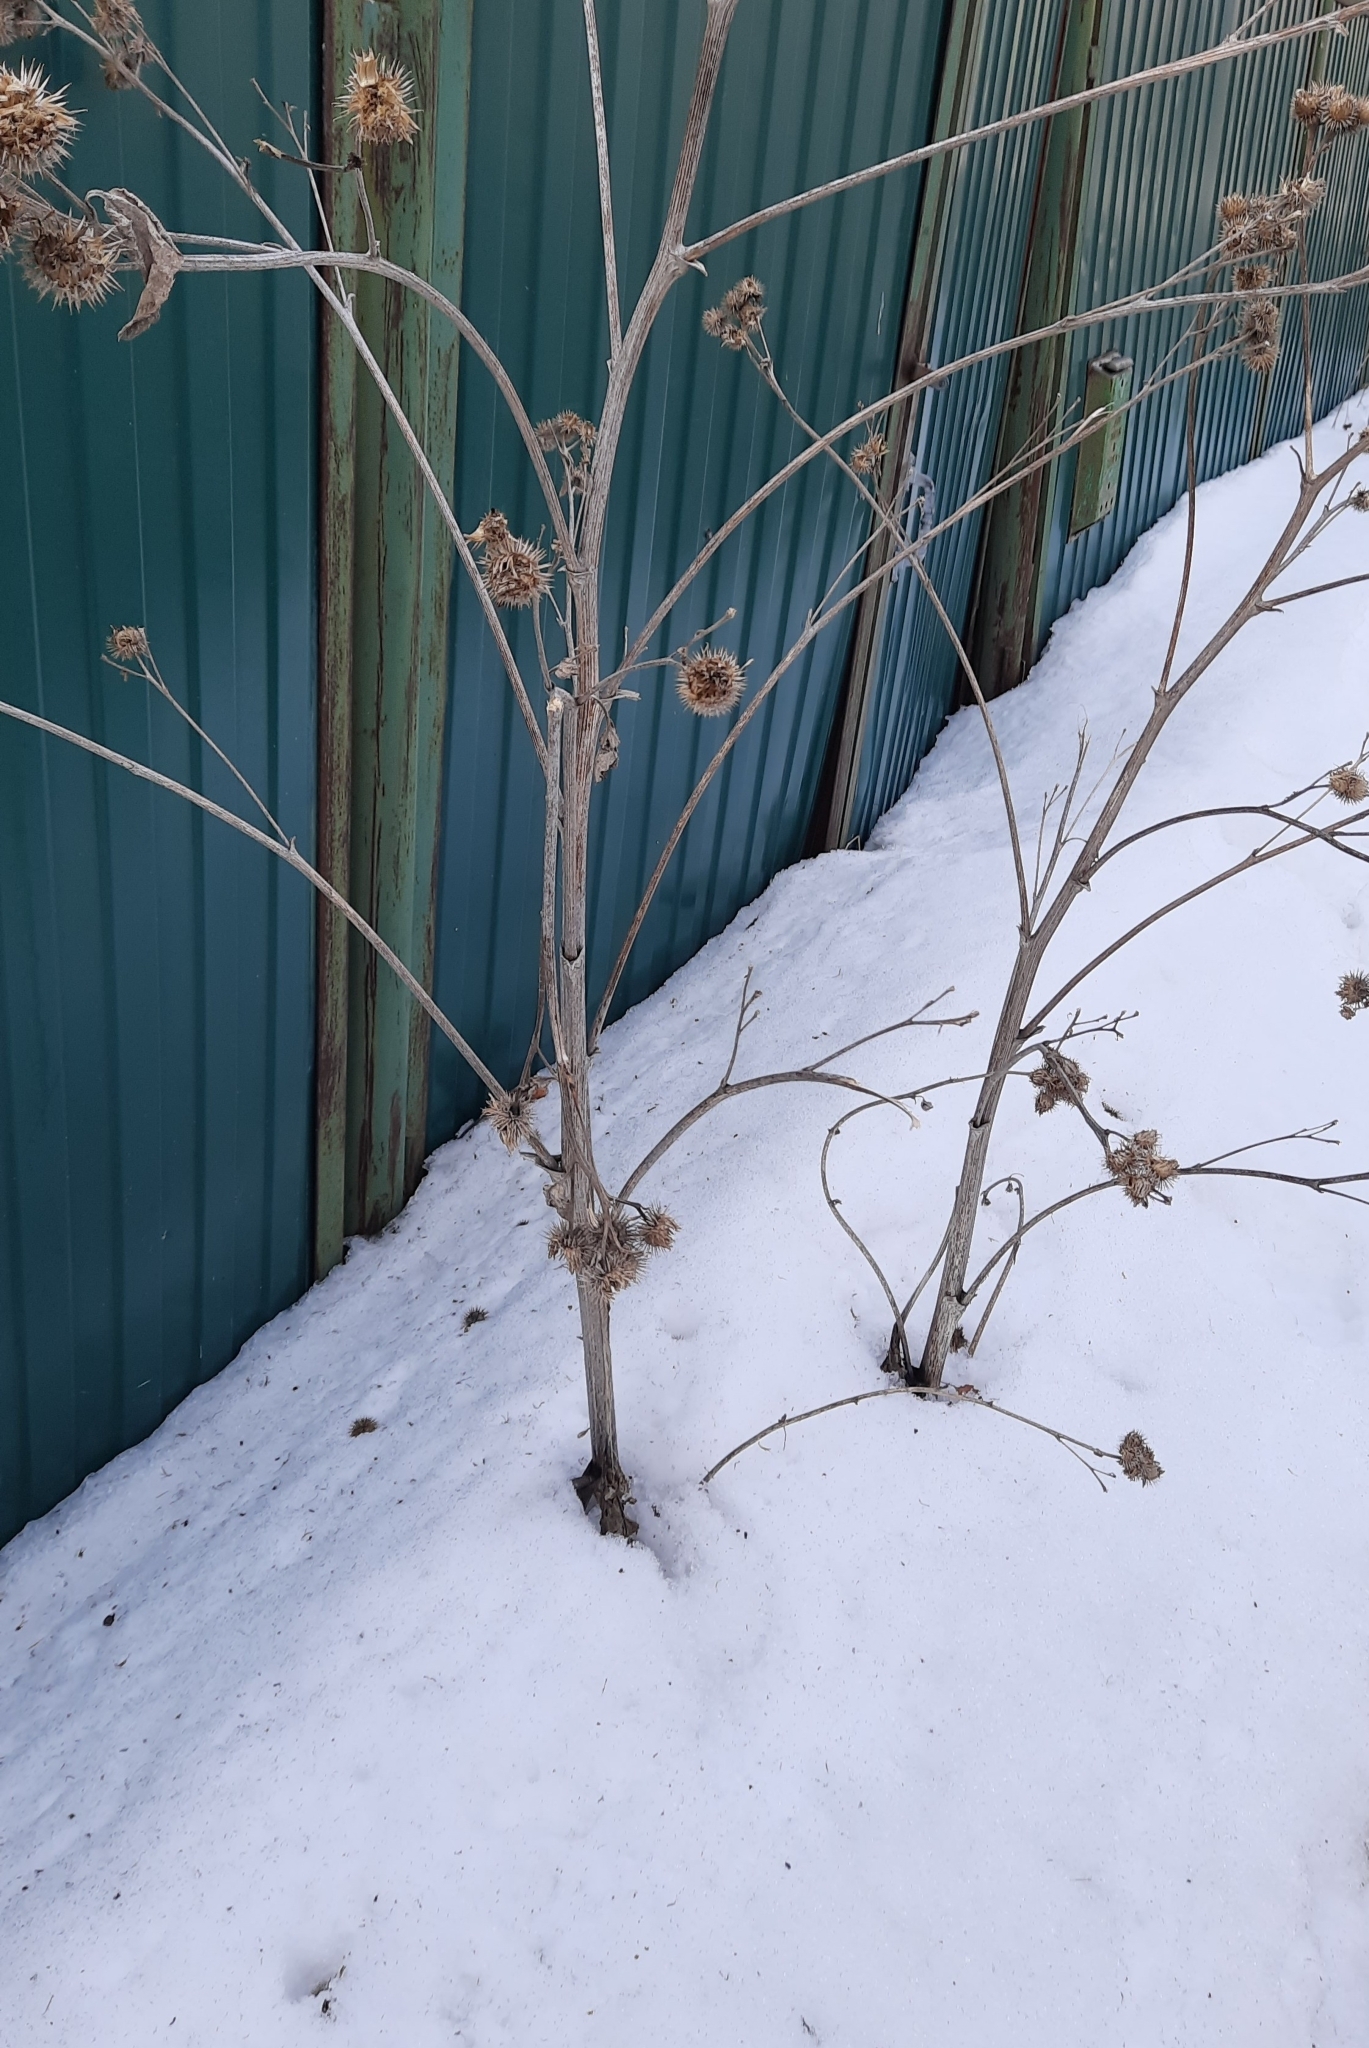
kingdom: Plantae
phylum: Tracheophyta
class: Magnoliopsida
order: Asterales
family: Asteraceae
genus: Arctium
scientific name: Arctium tomentosum
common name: Woolly burdock
